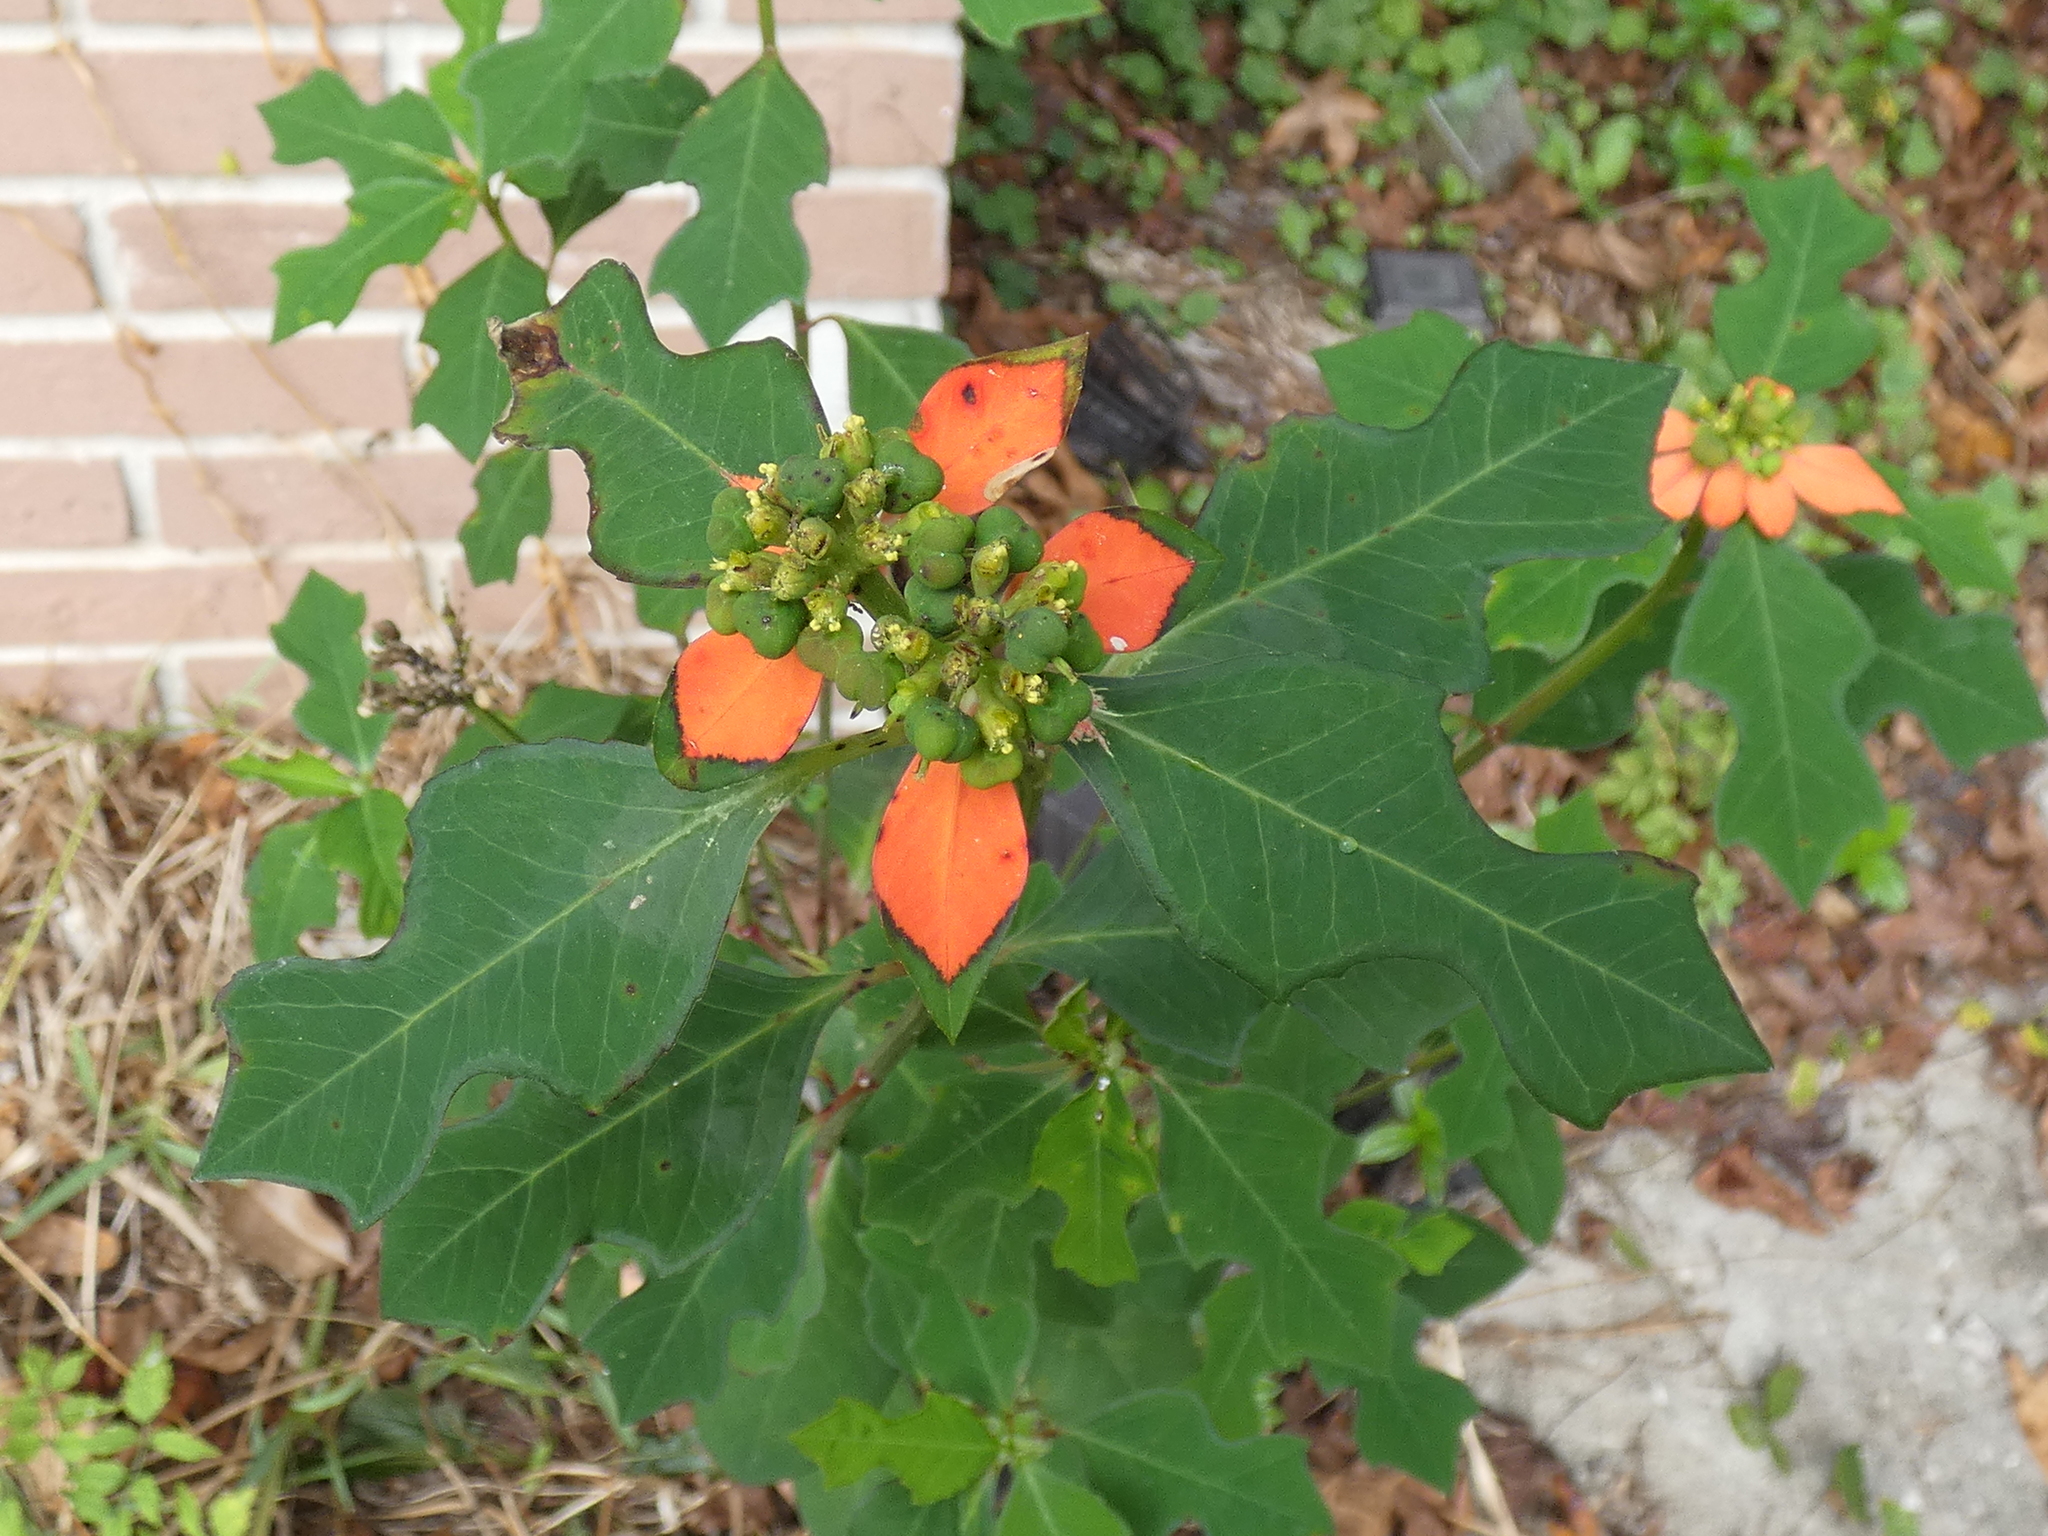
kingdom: Plantae
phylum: Tracheophyta
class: Magnoliopsida
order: Malpighiales
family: Euphorbiaceae
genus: Euphorbia
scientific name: Euphorbia heterophylla
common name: Mexican fireplant
